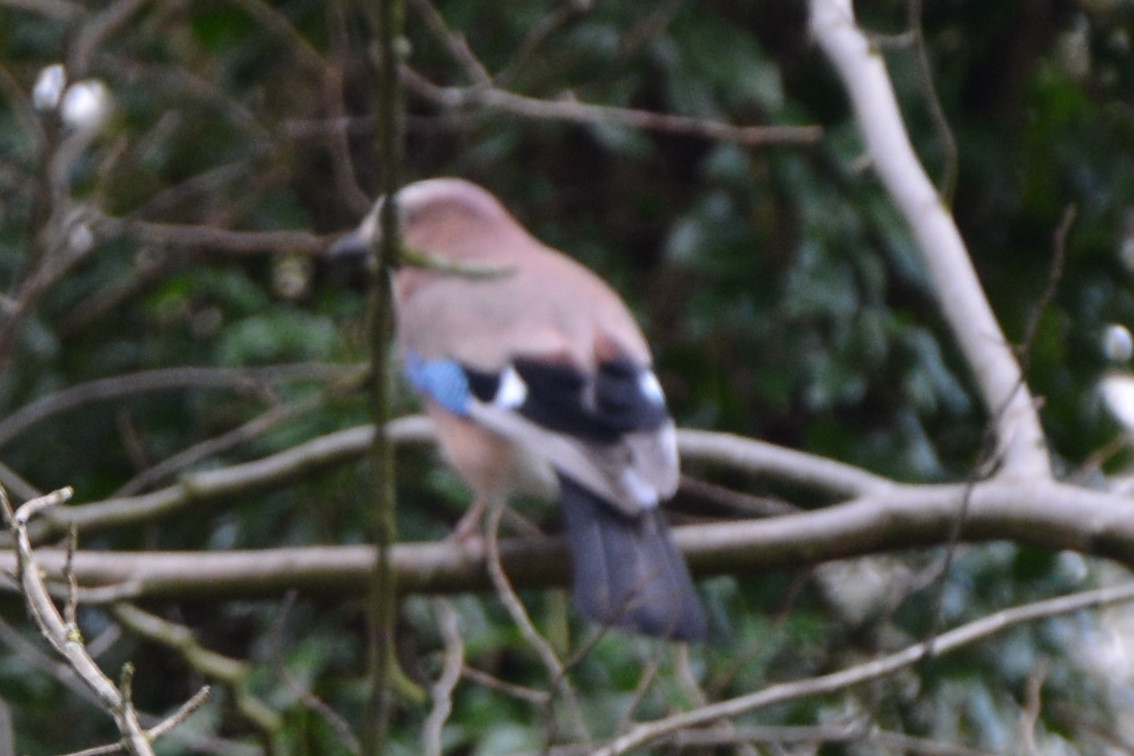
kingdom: Animalia
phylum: Chordata
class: Aves
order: Passeriformes
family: Corvidae
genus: Garrulus
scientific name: Garrulus glandarius
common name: Eurasian jay
